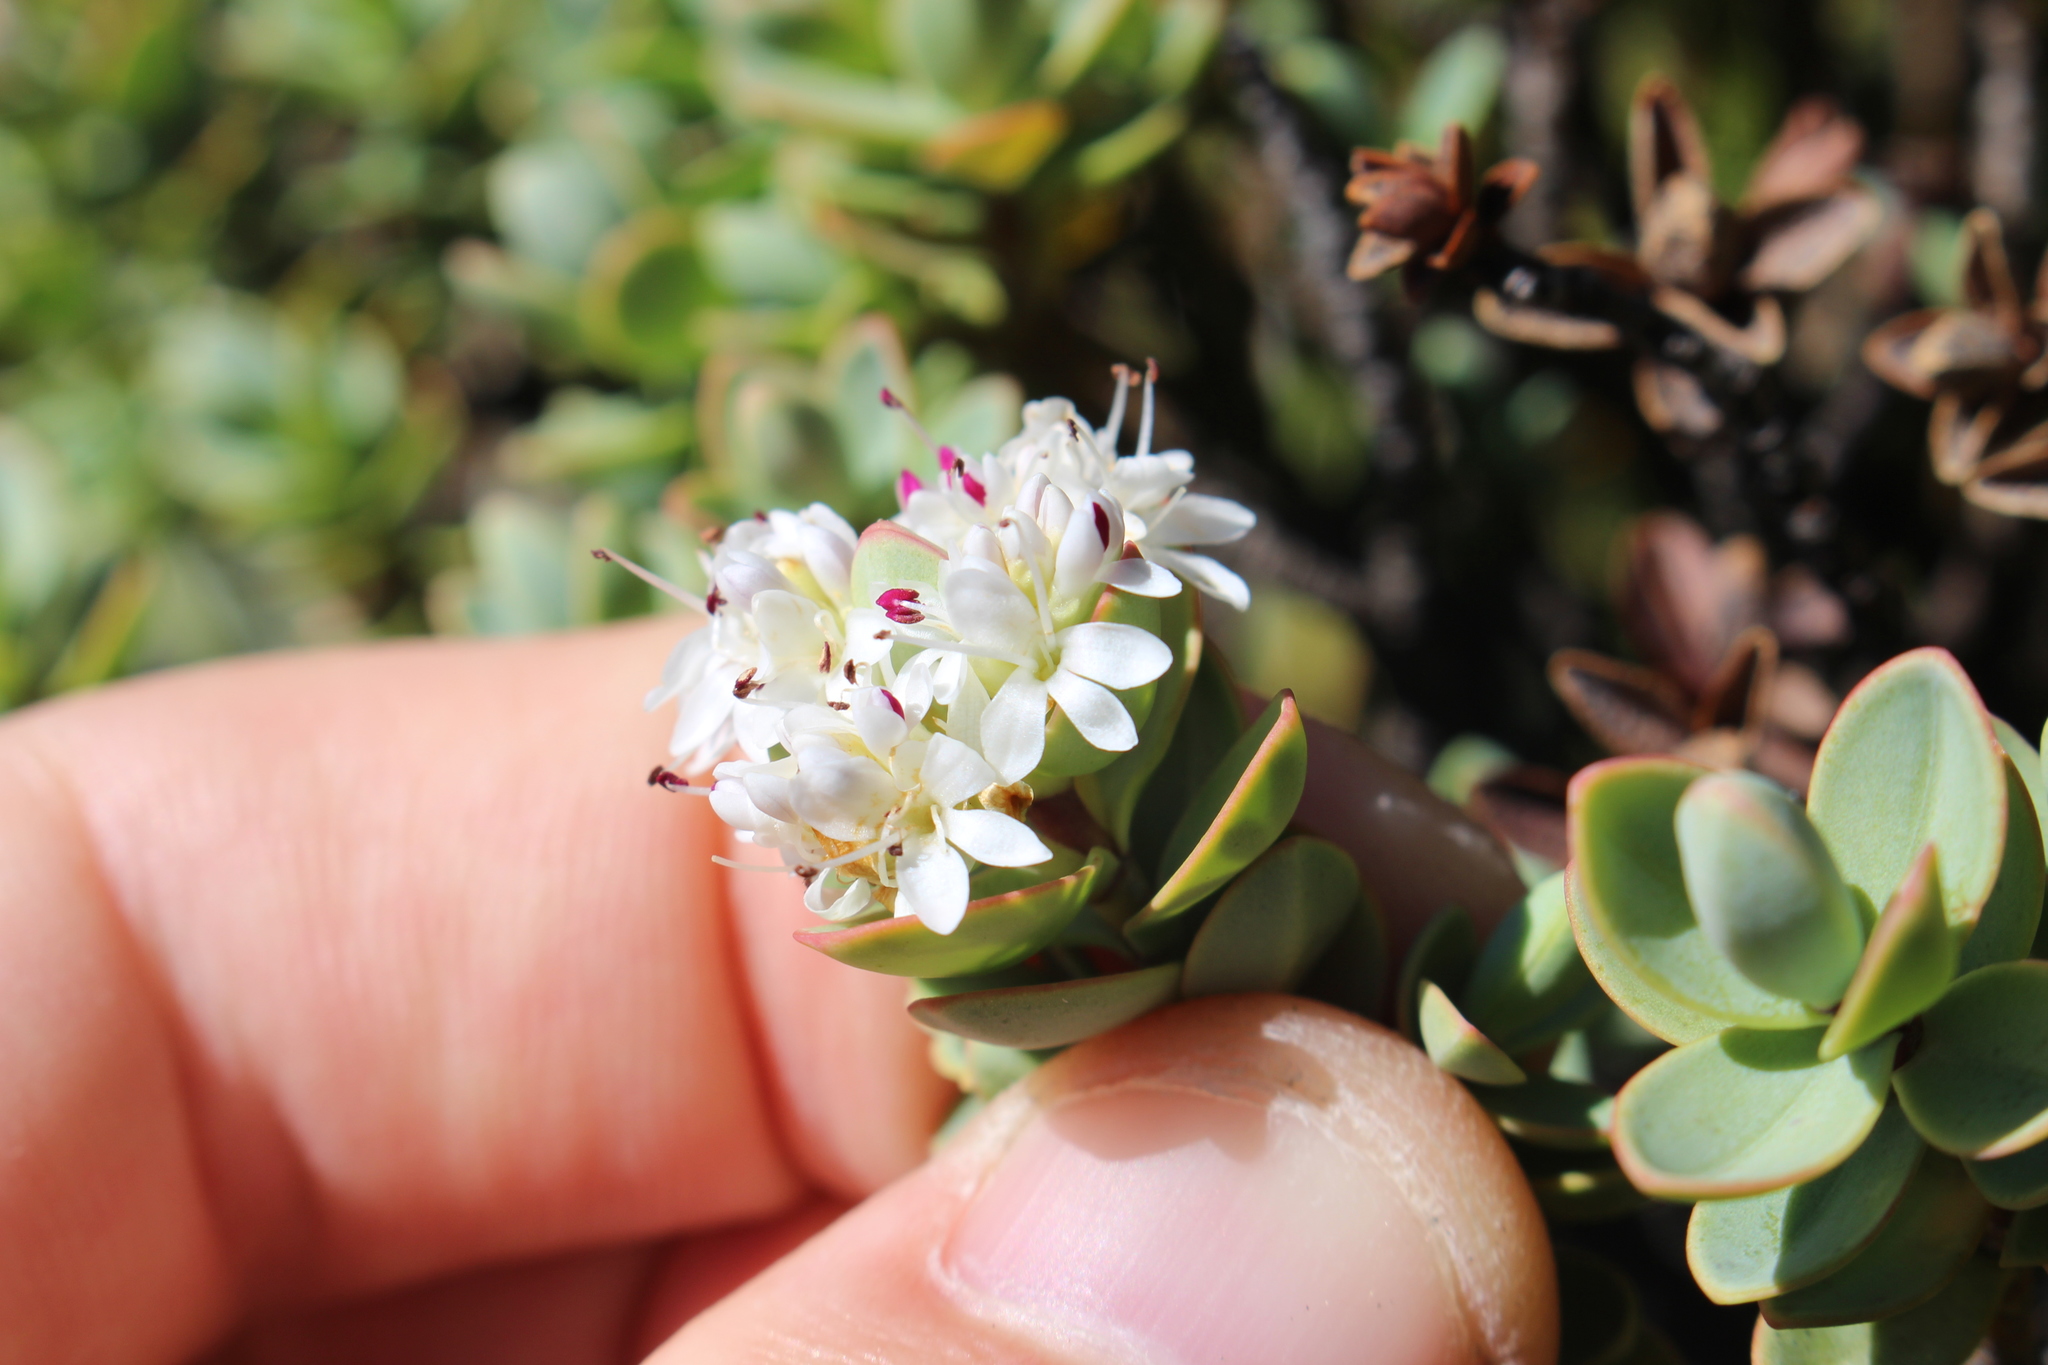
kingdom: Plantae
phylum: Tracheophyta
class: Magnoliopsida
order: Lamiales
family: Plantaginaceae
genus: Veronica
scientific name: Veronica pinguifolia
